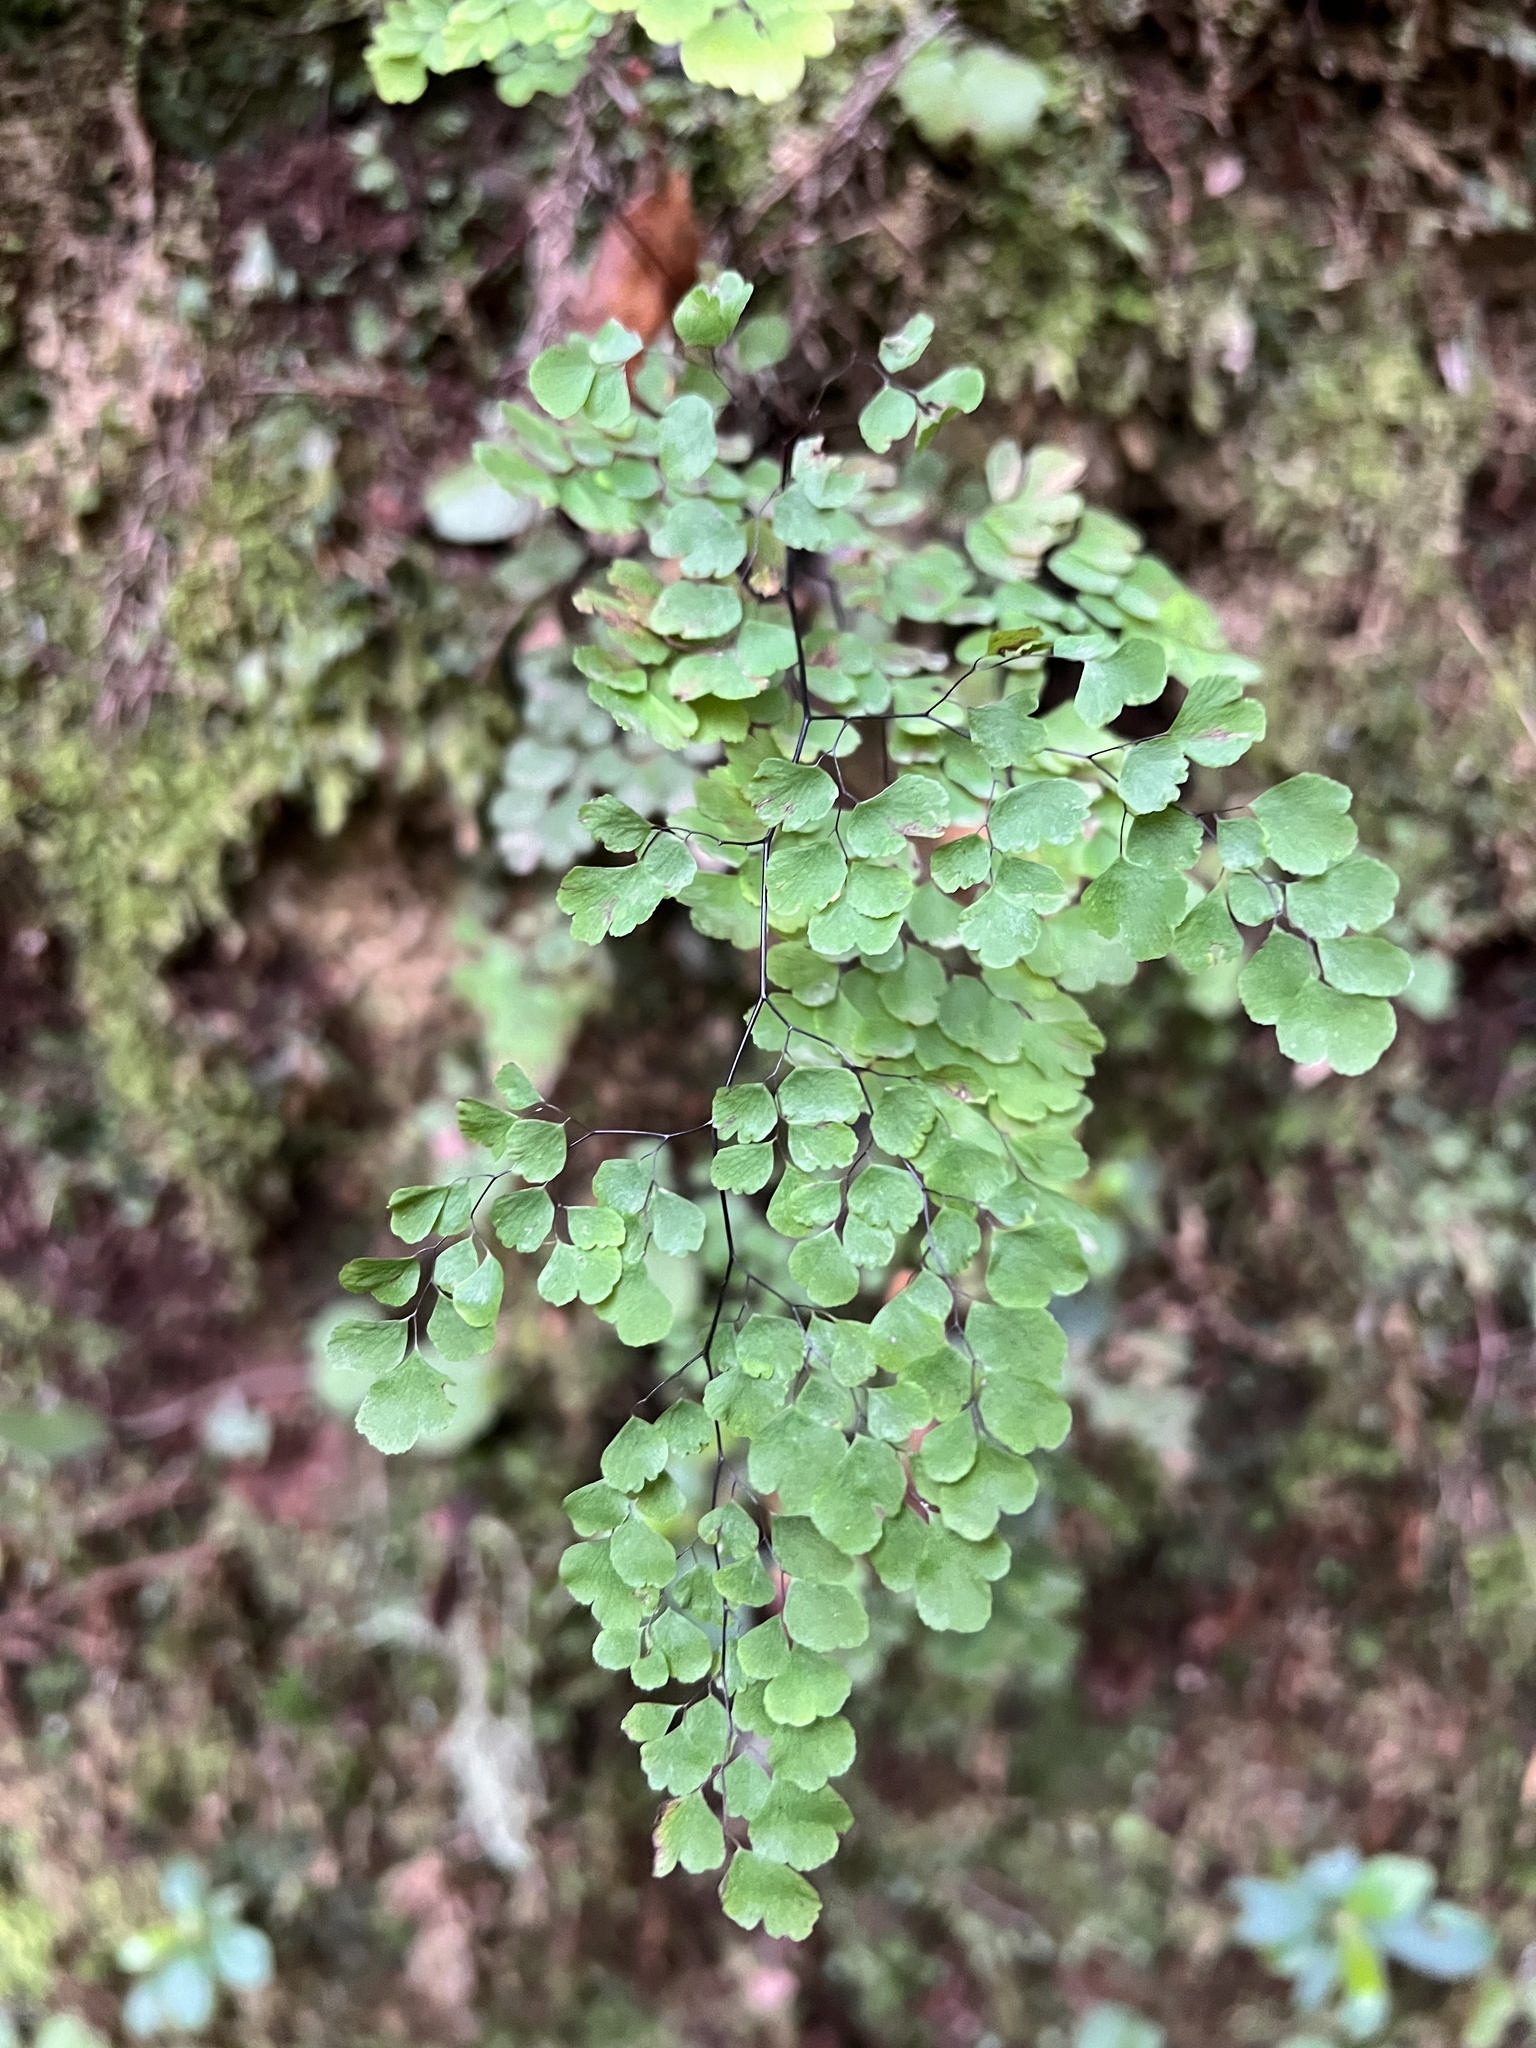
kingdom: Plantae
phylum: Tracheophyta
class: Polypodiopsida
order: Polypodiales
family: Pteridaceae
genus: Adiantum
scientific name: Adiantum raddianum
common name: Delta maidenhair fern
